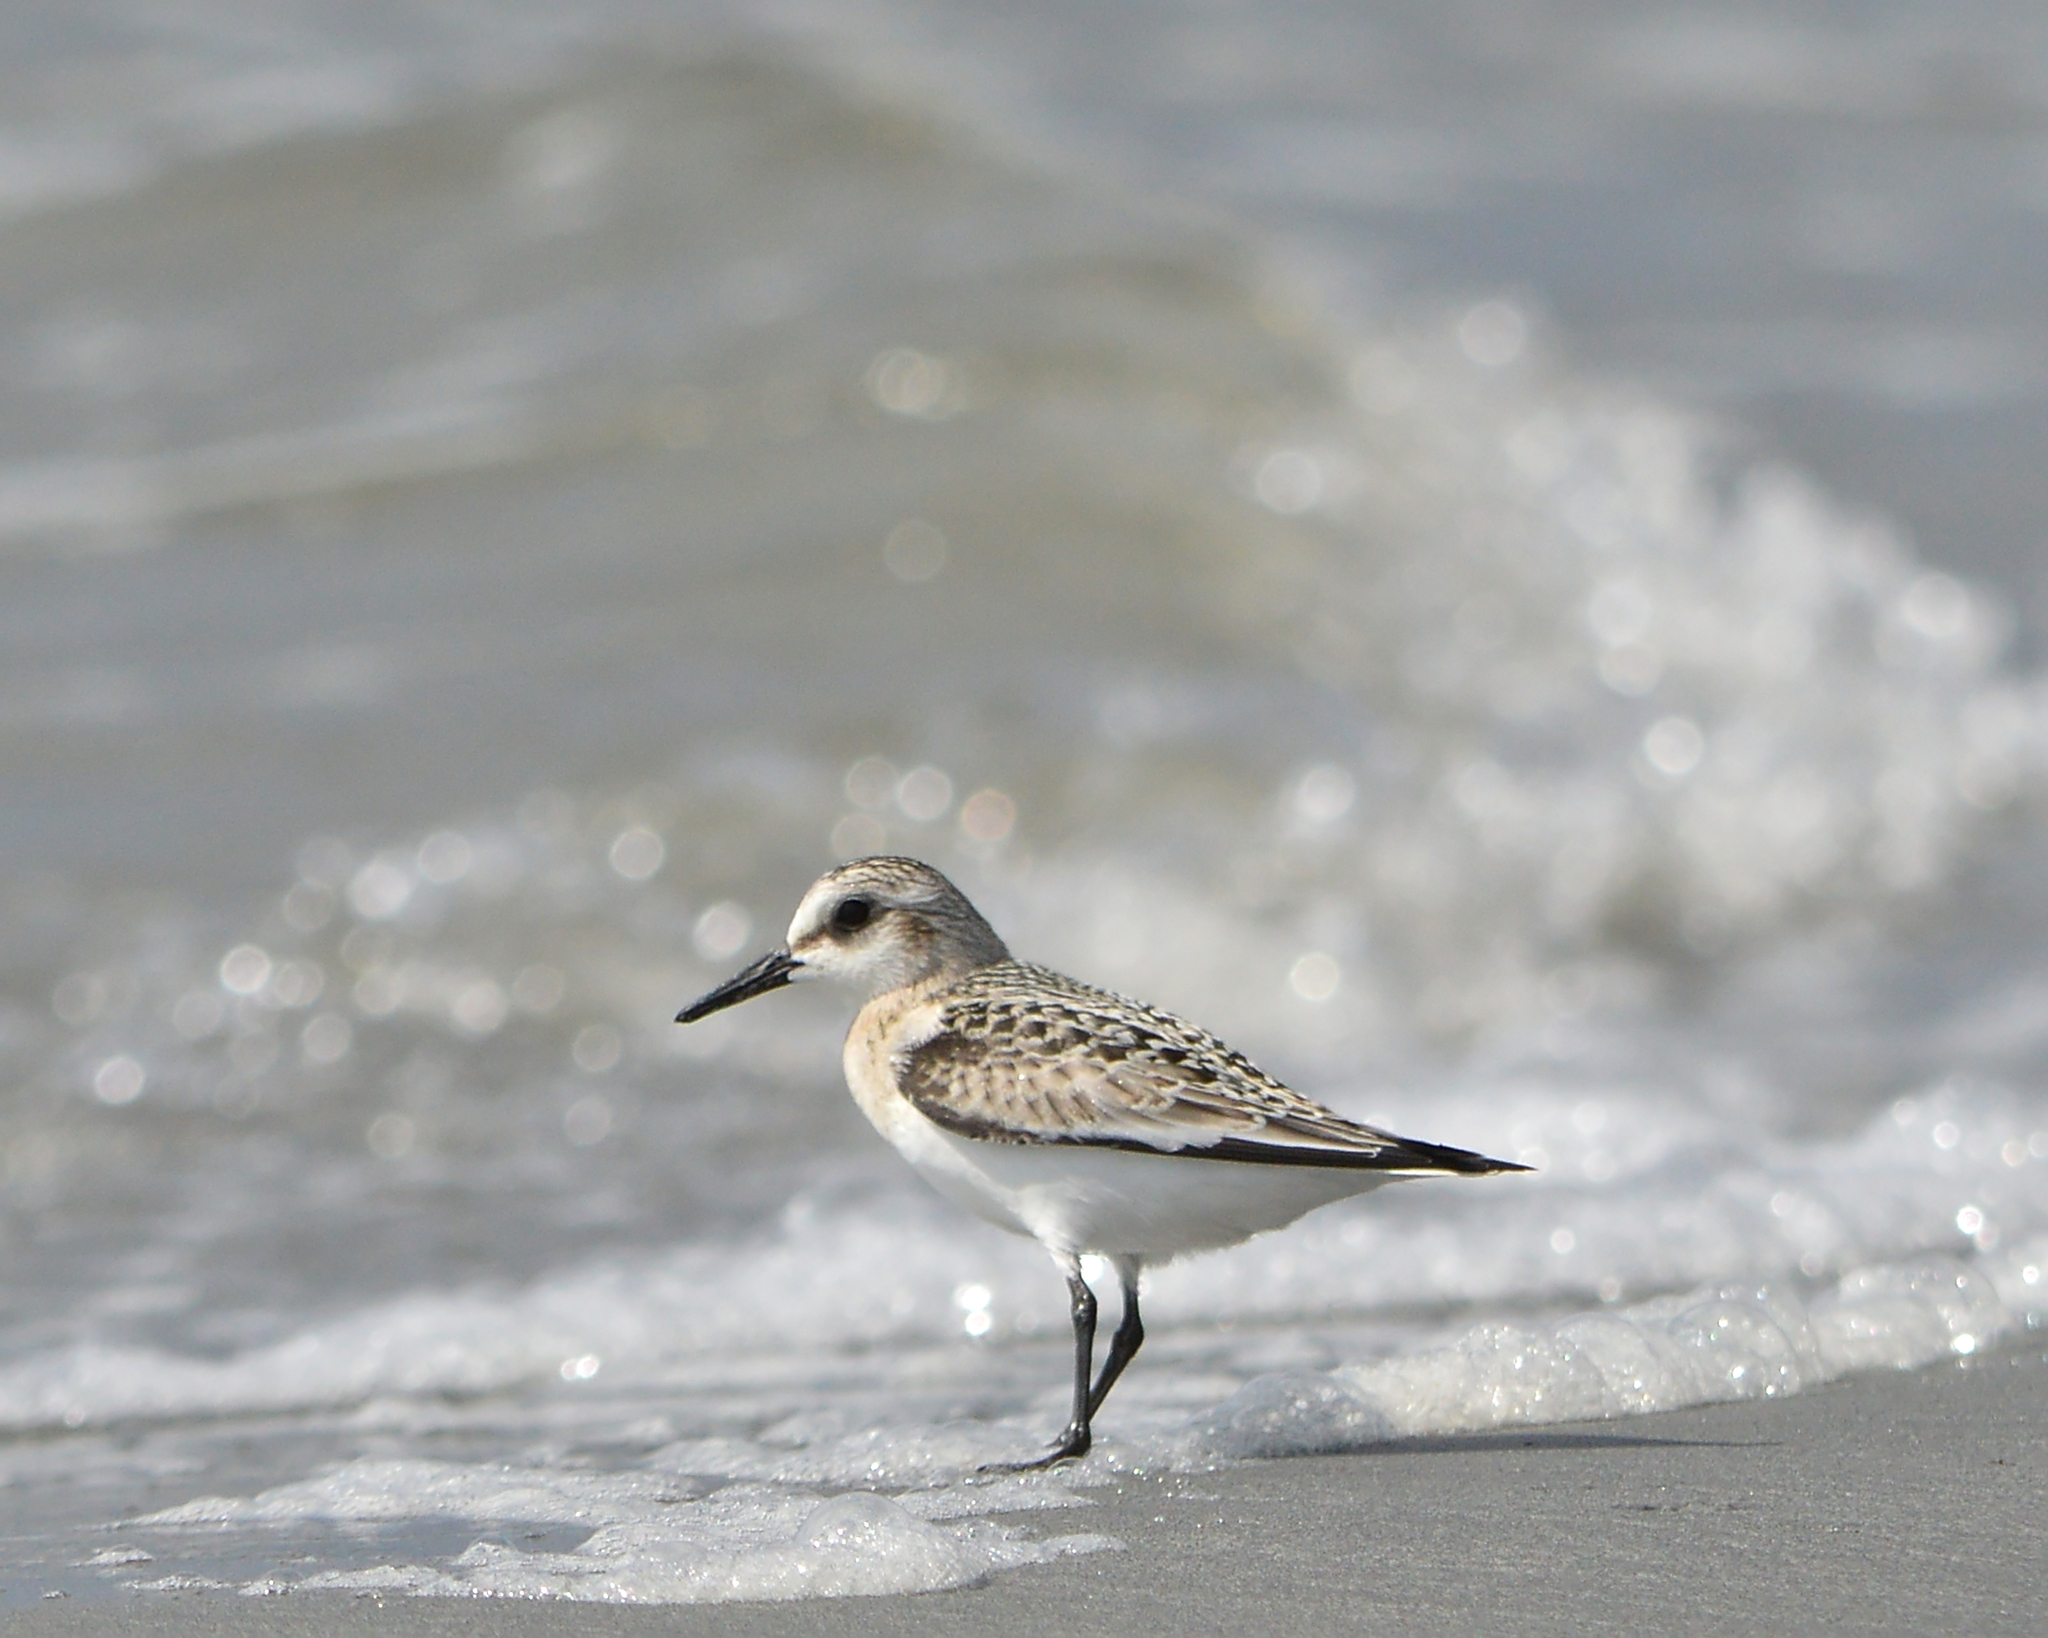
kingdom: Animalia
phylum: Chordata
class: Aves
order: Charadriiformes
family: Scolopacidae
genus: Calidris
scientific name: Calidris alba
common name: Sanderling
